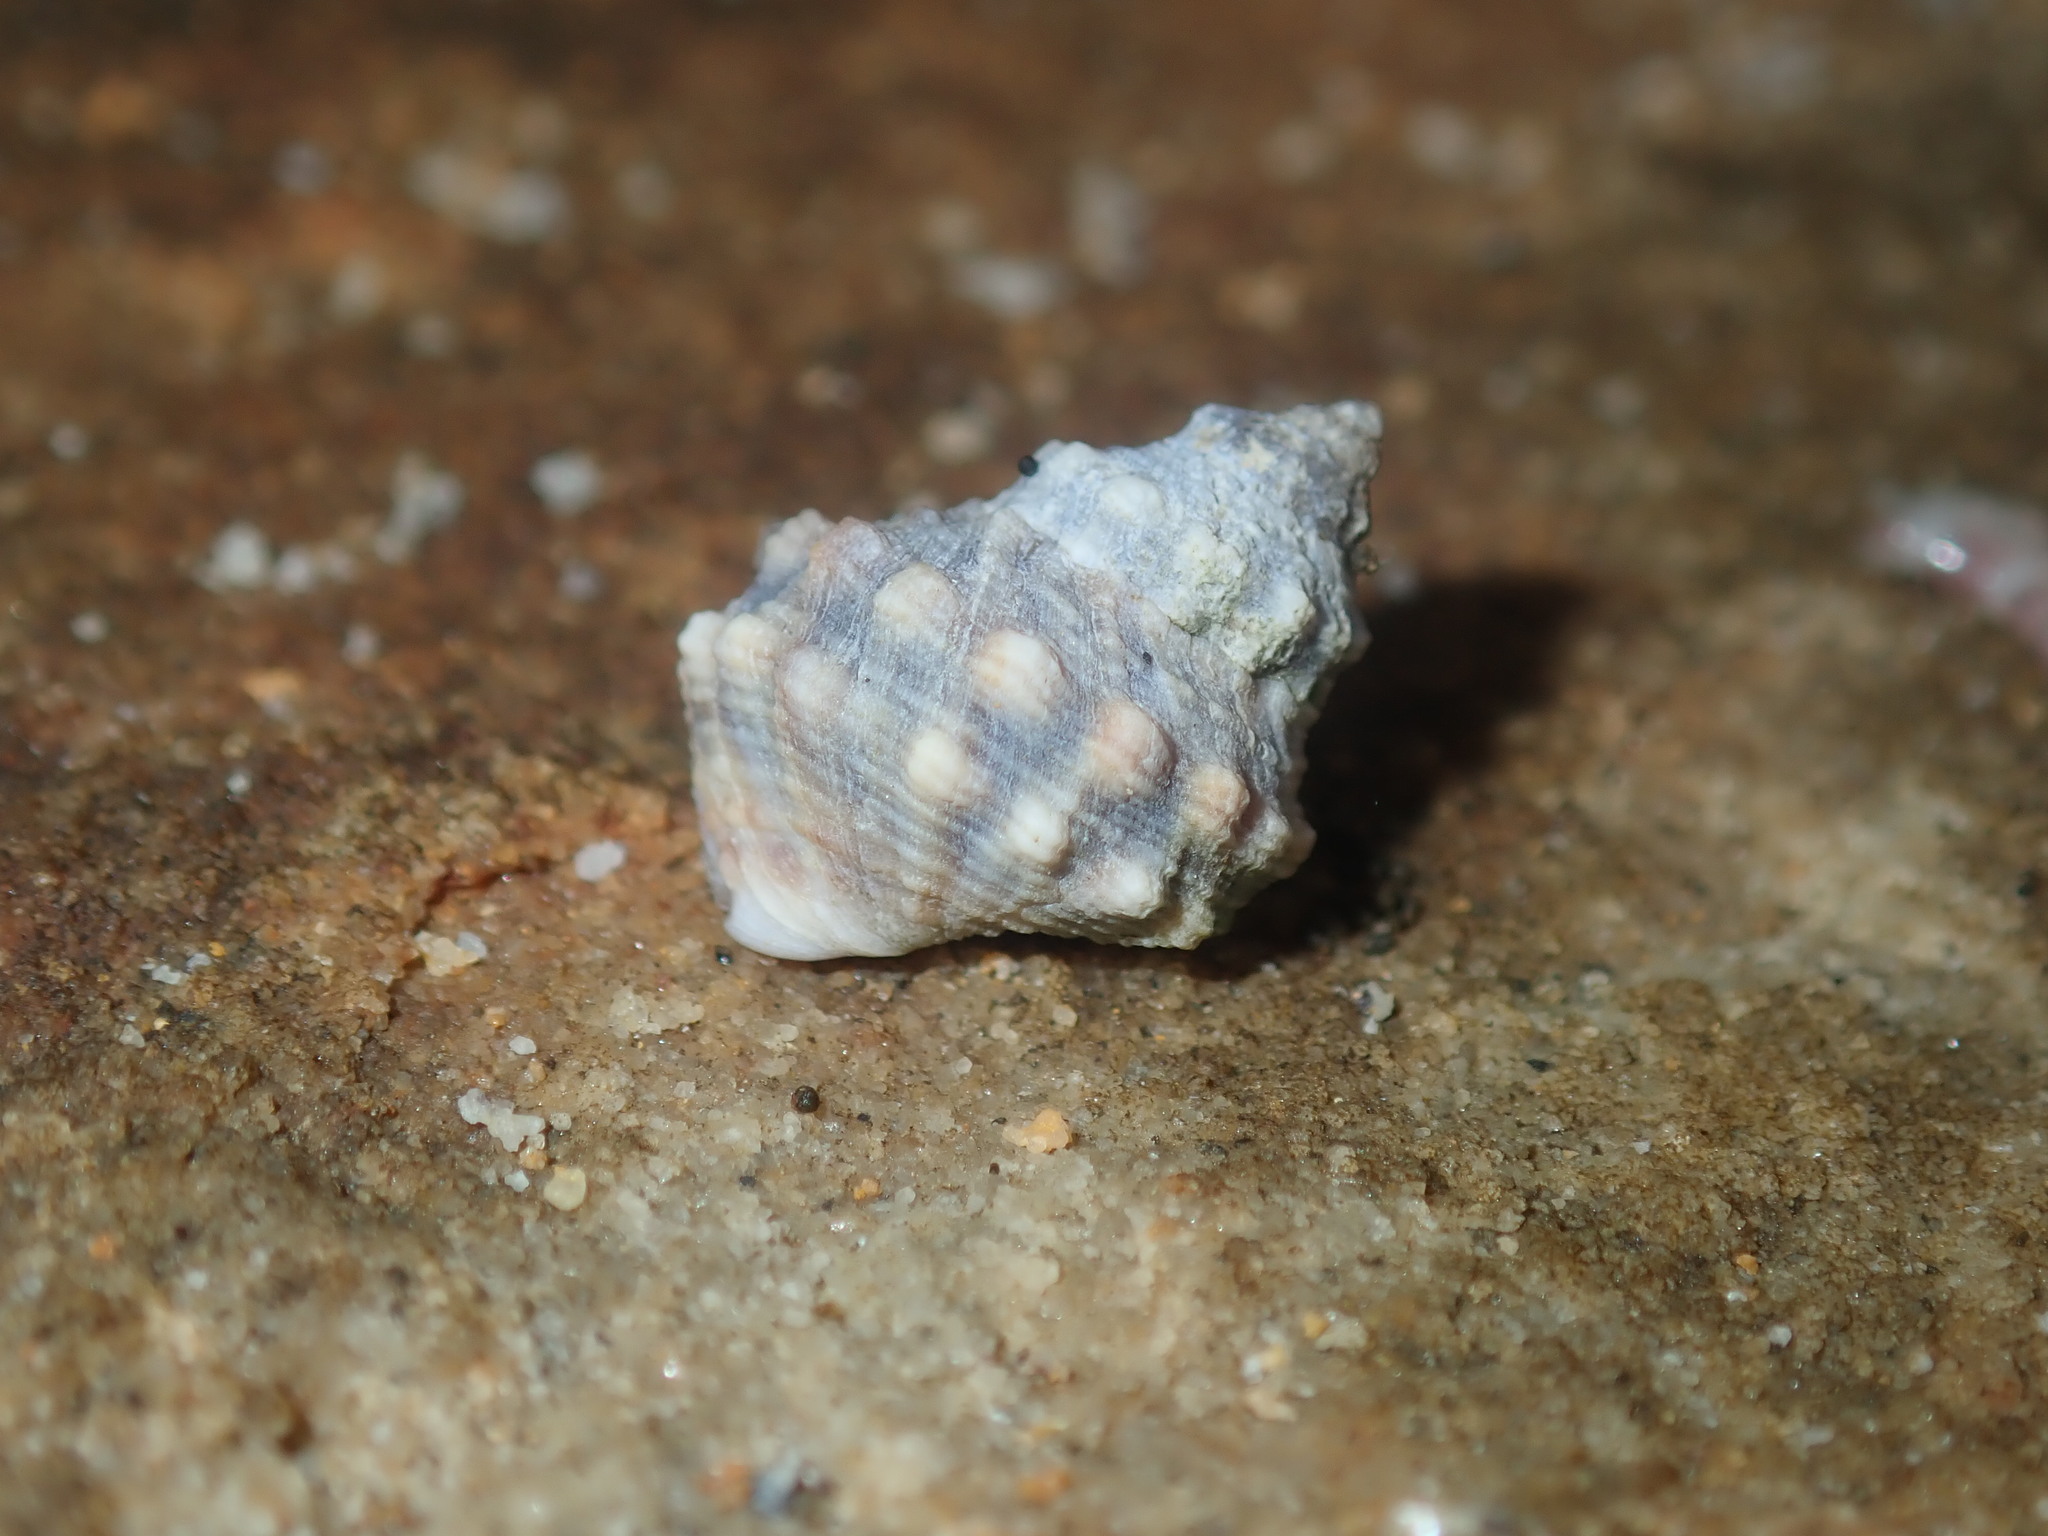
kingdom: Animalia
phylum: Mollusca
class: Gastropoda
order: Littorinimorpha
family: Littorinidae
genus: Nodilittorina
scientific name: Nodilittorina pyramidalis
